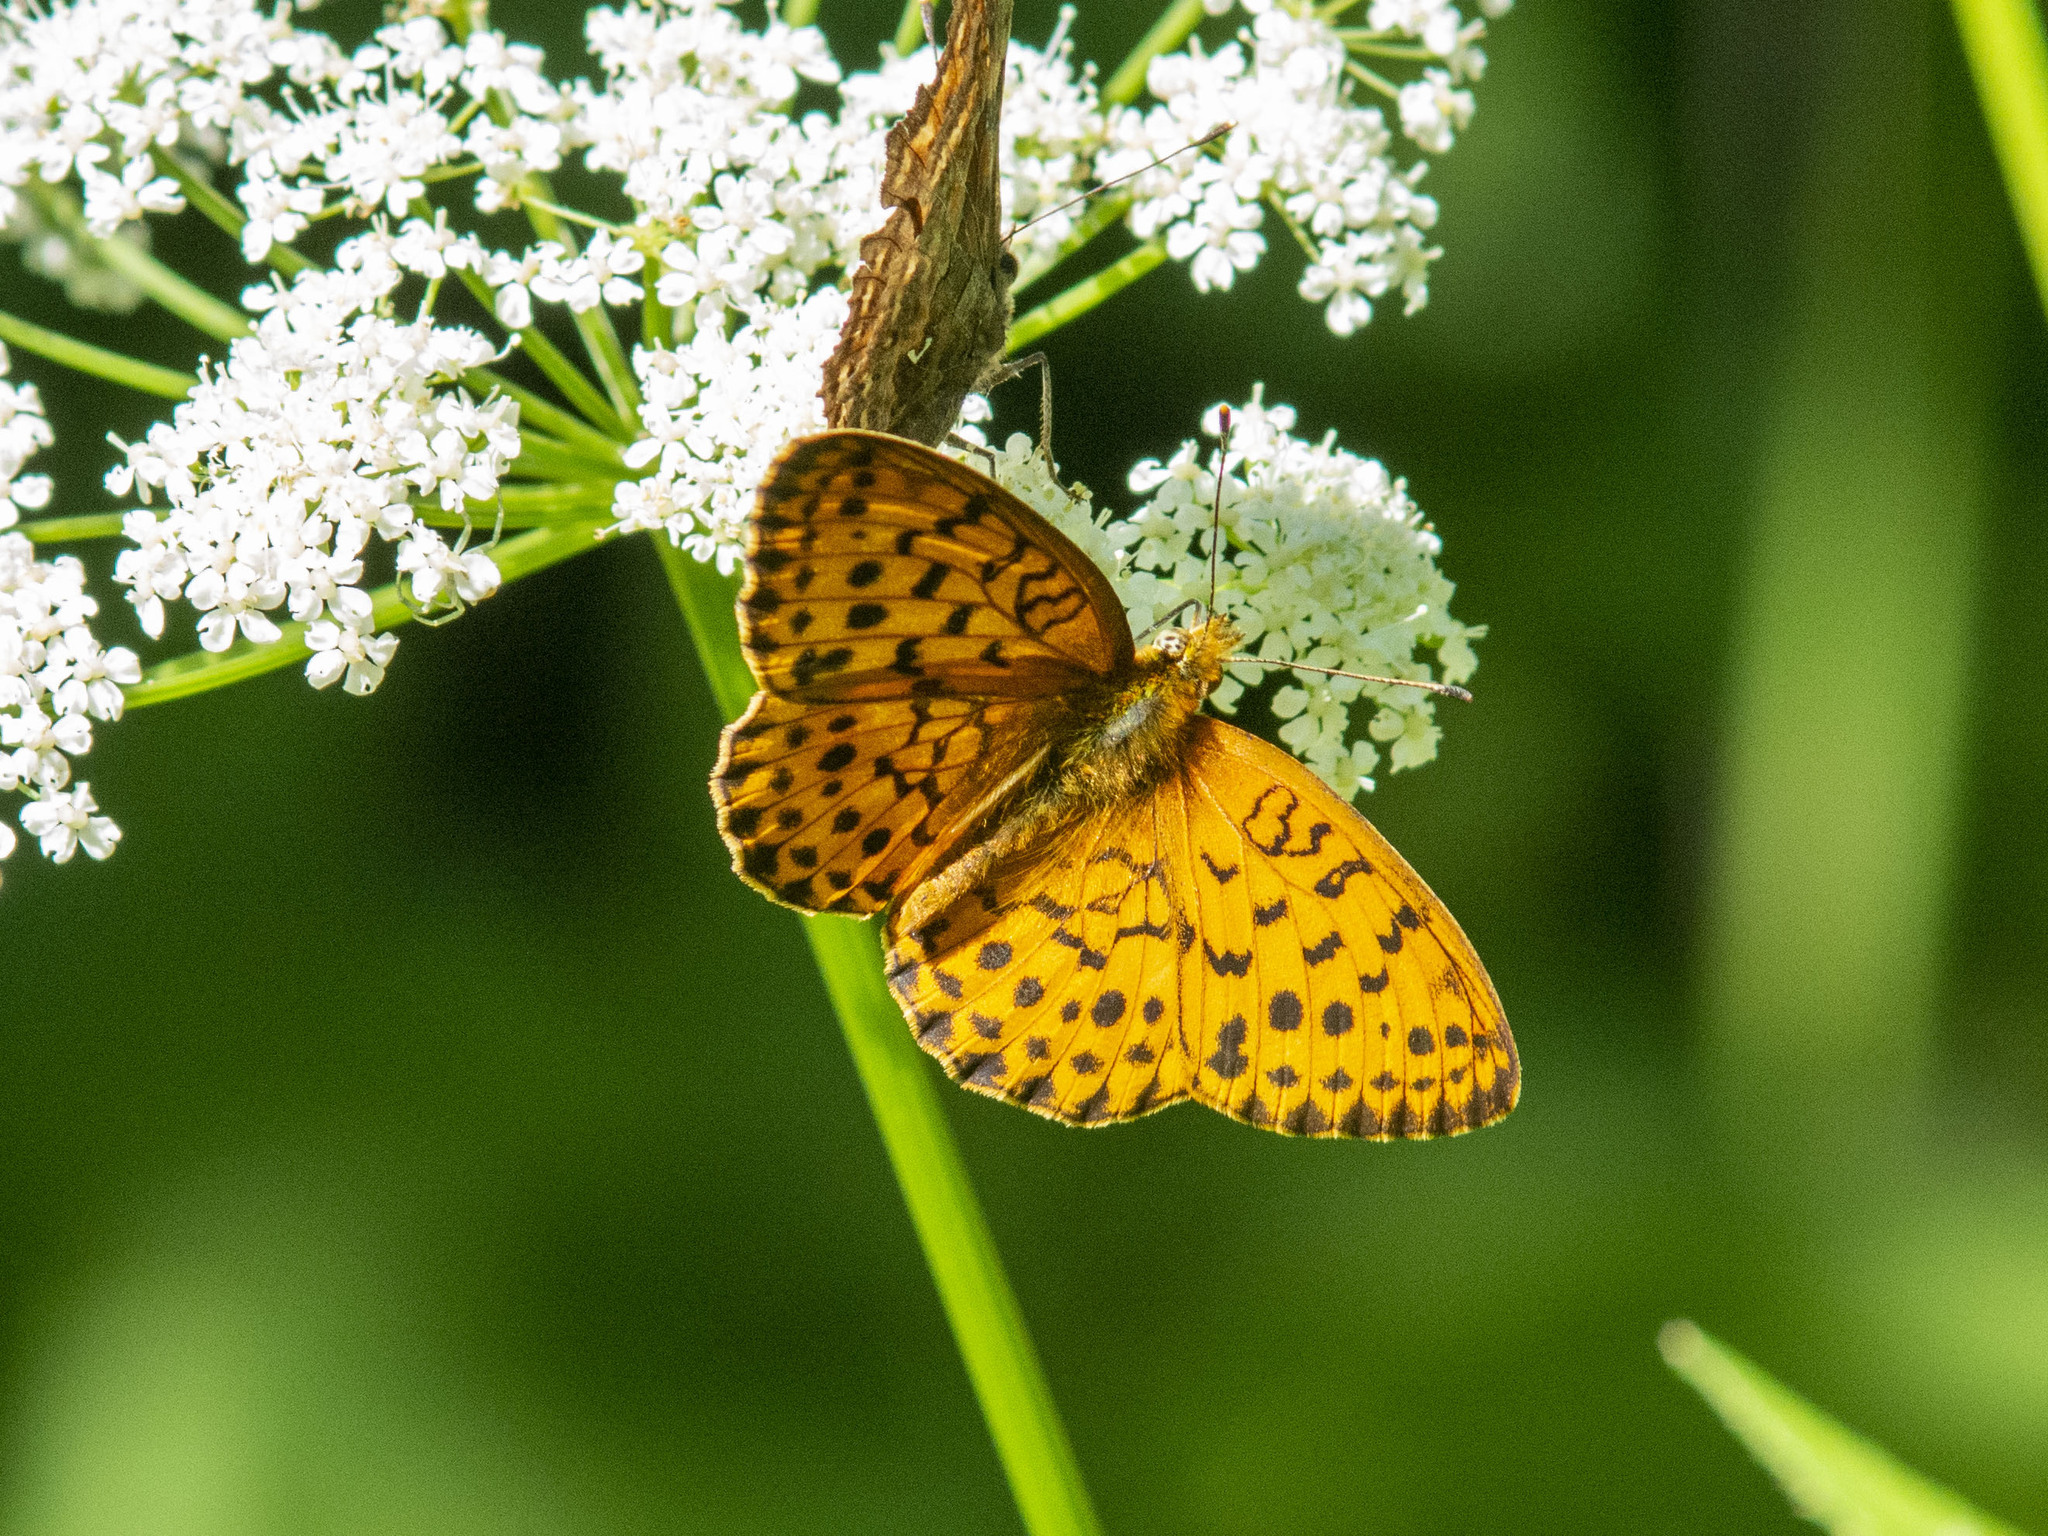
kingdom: Animalia
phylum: Arthropoda
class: Insecta
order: Lepidoptera
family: Nymphalidae
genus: Brenthis
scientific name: Brenthis daphne
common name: Marbled fritillary
